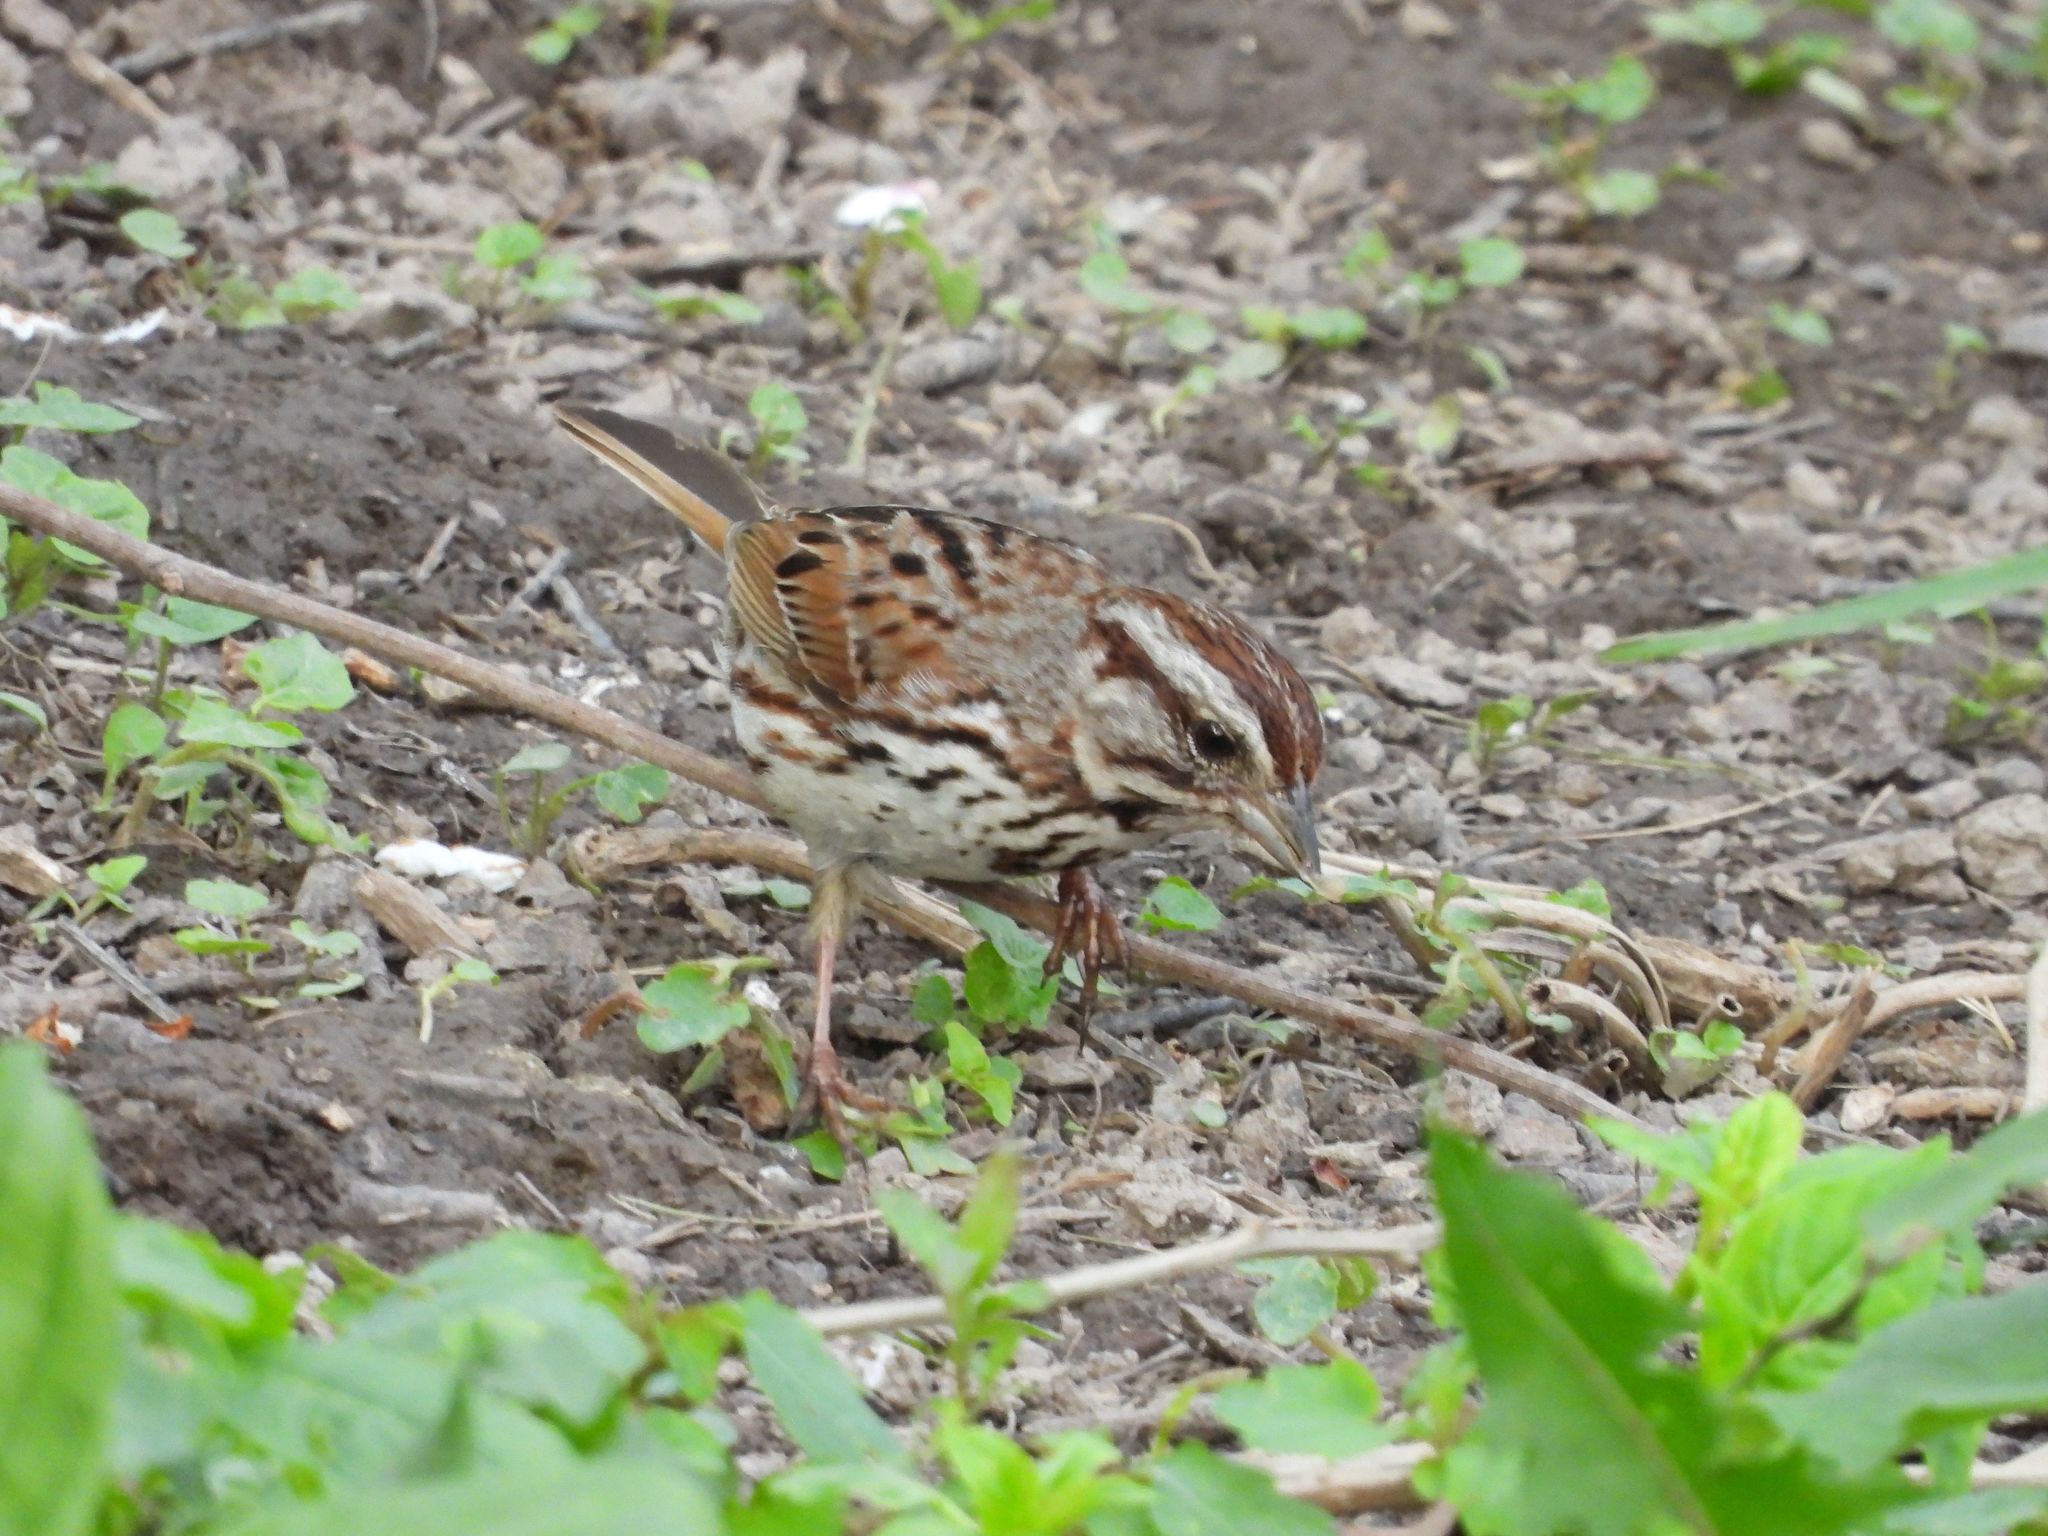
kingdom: Animalia
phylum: Chordata
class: Aves
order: Passeriformes
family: Passerellidae
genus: Melospiza
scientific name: Melospiza melodia
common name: Song sparrow
